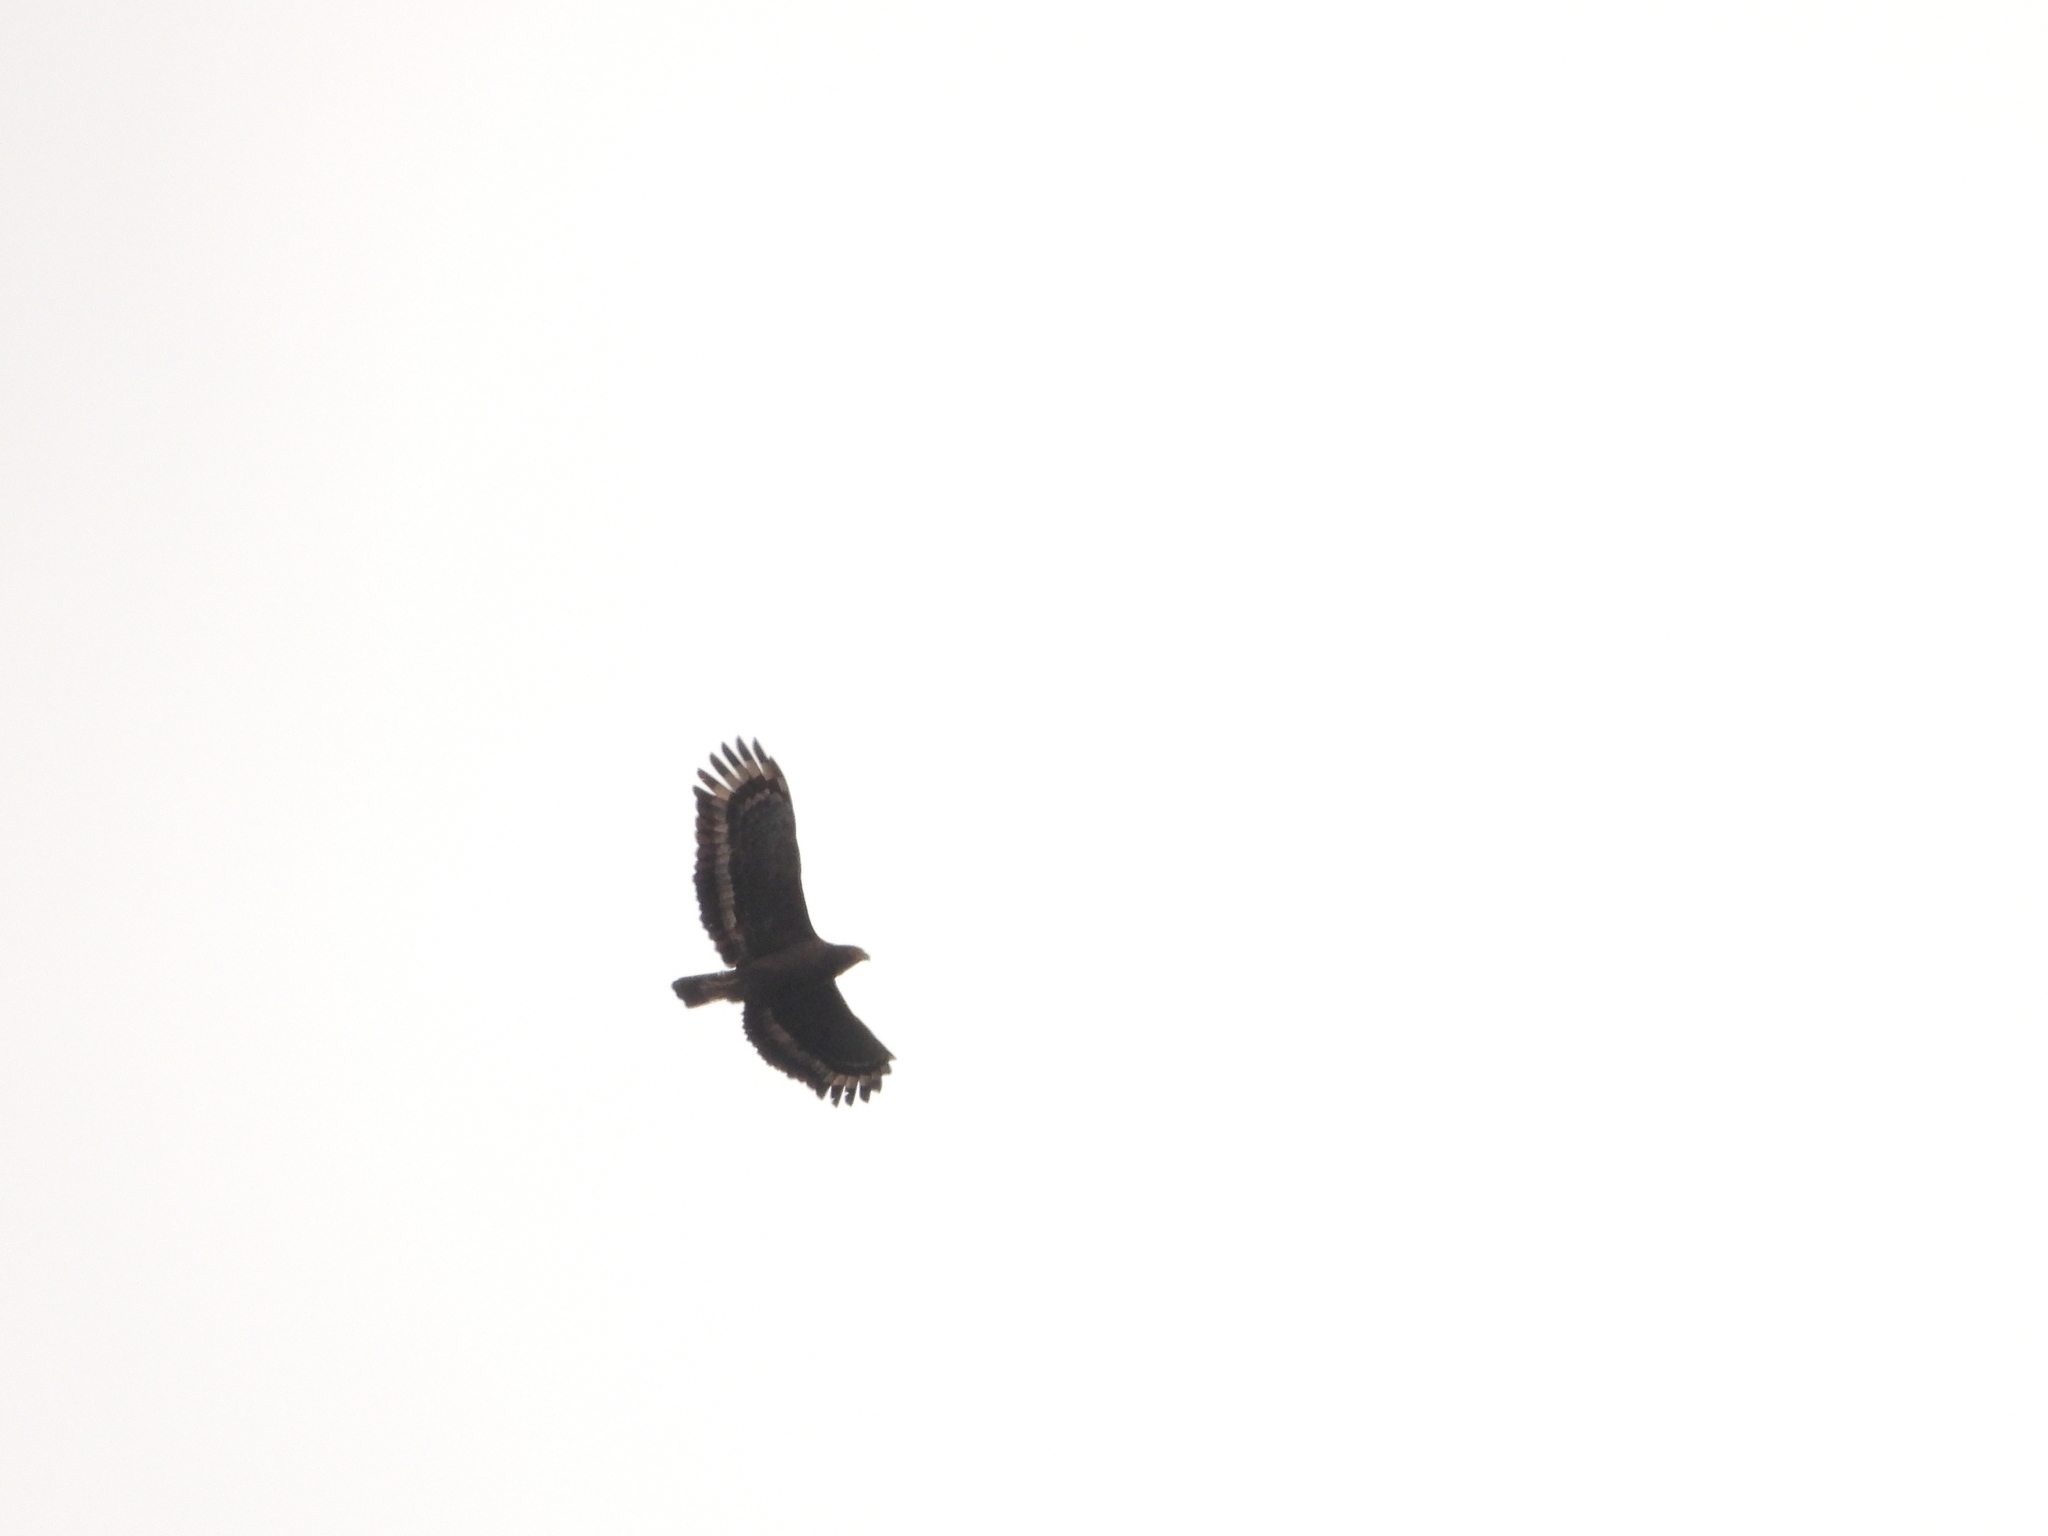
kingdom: Animalia
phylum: Chordata
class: Aves
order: Accipitriformes
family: Accipitridae
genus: Spilornis
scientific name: Spilornis cheela
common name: Crested serpent eagle
